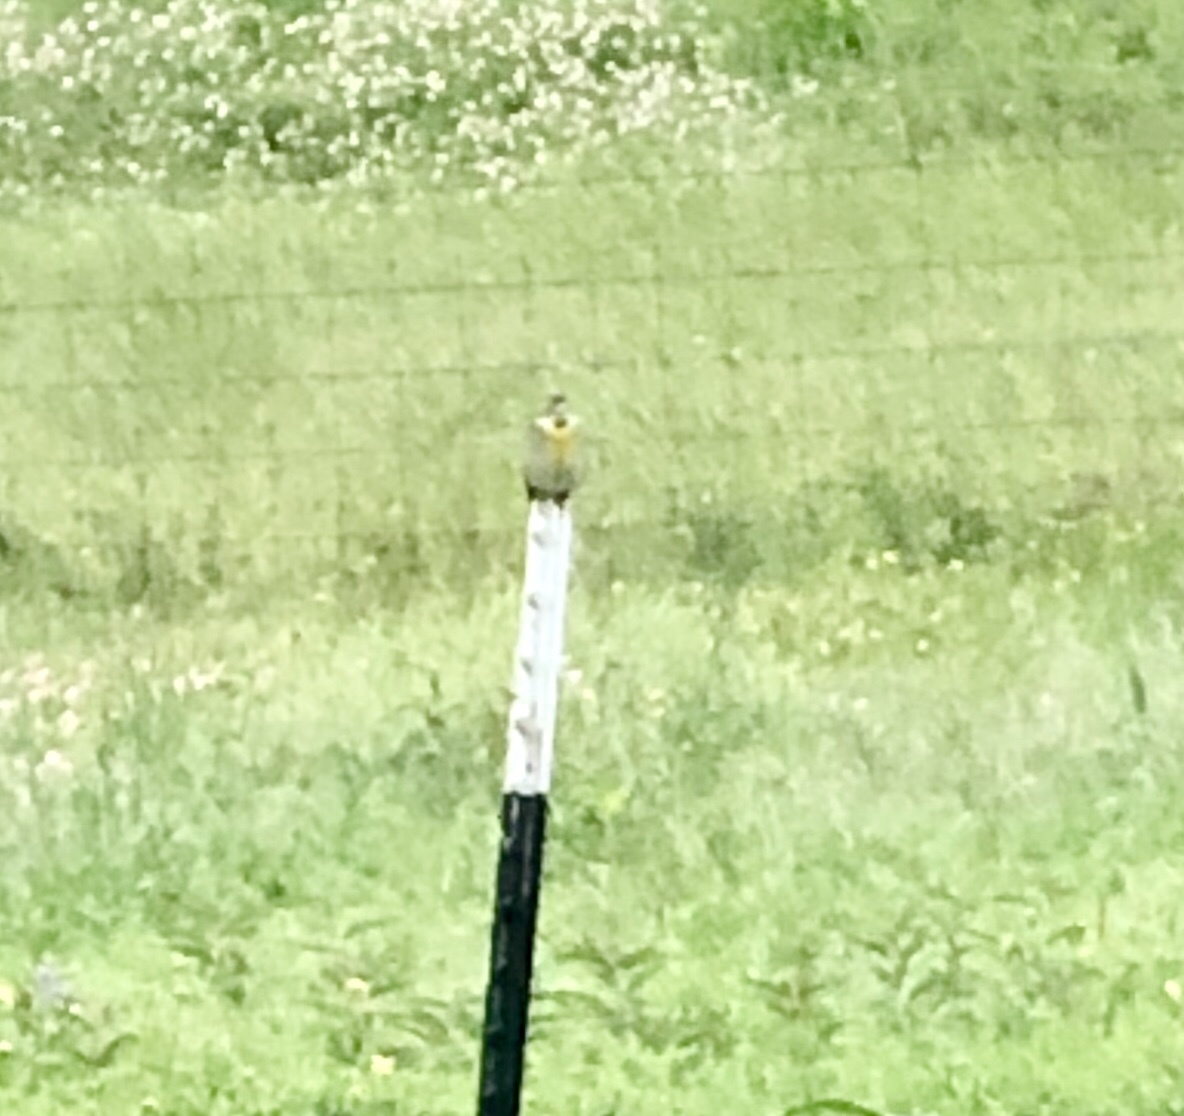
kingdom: Animalia
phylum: Chordata
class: Aves
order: Passeriformes
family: Cardinalidae
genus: Spiza
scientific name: Spiza americana
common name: Dickcissel
